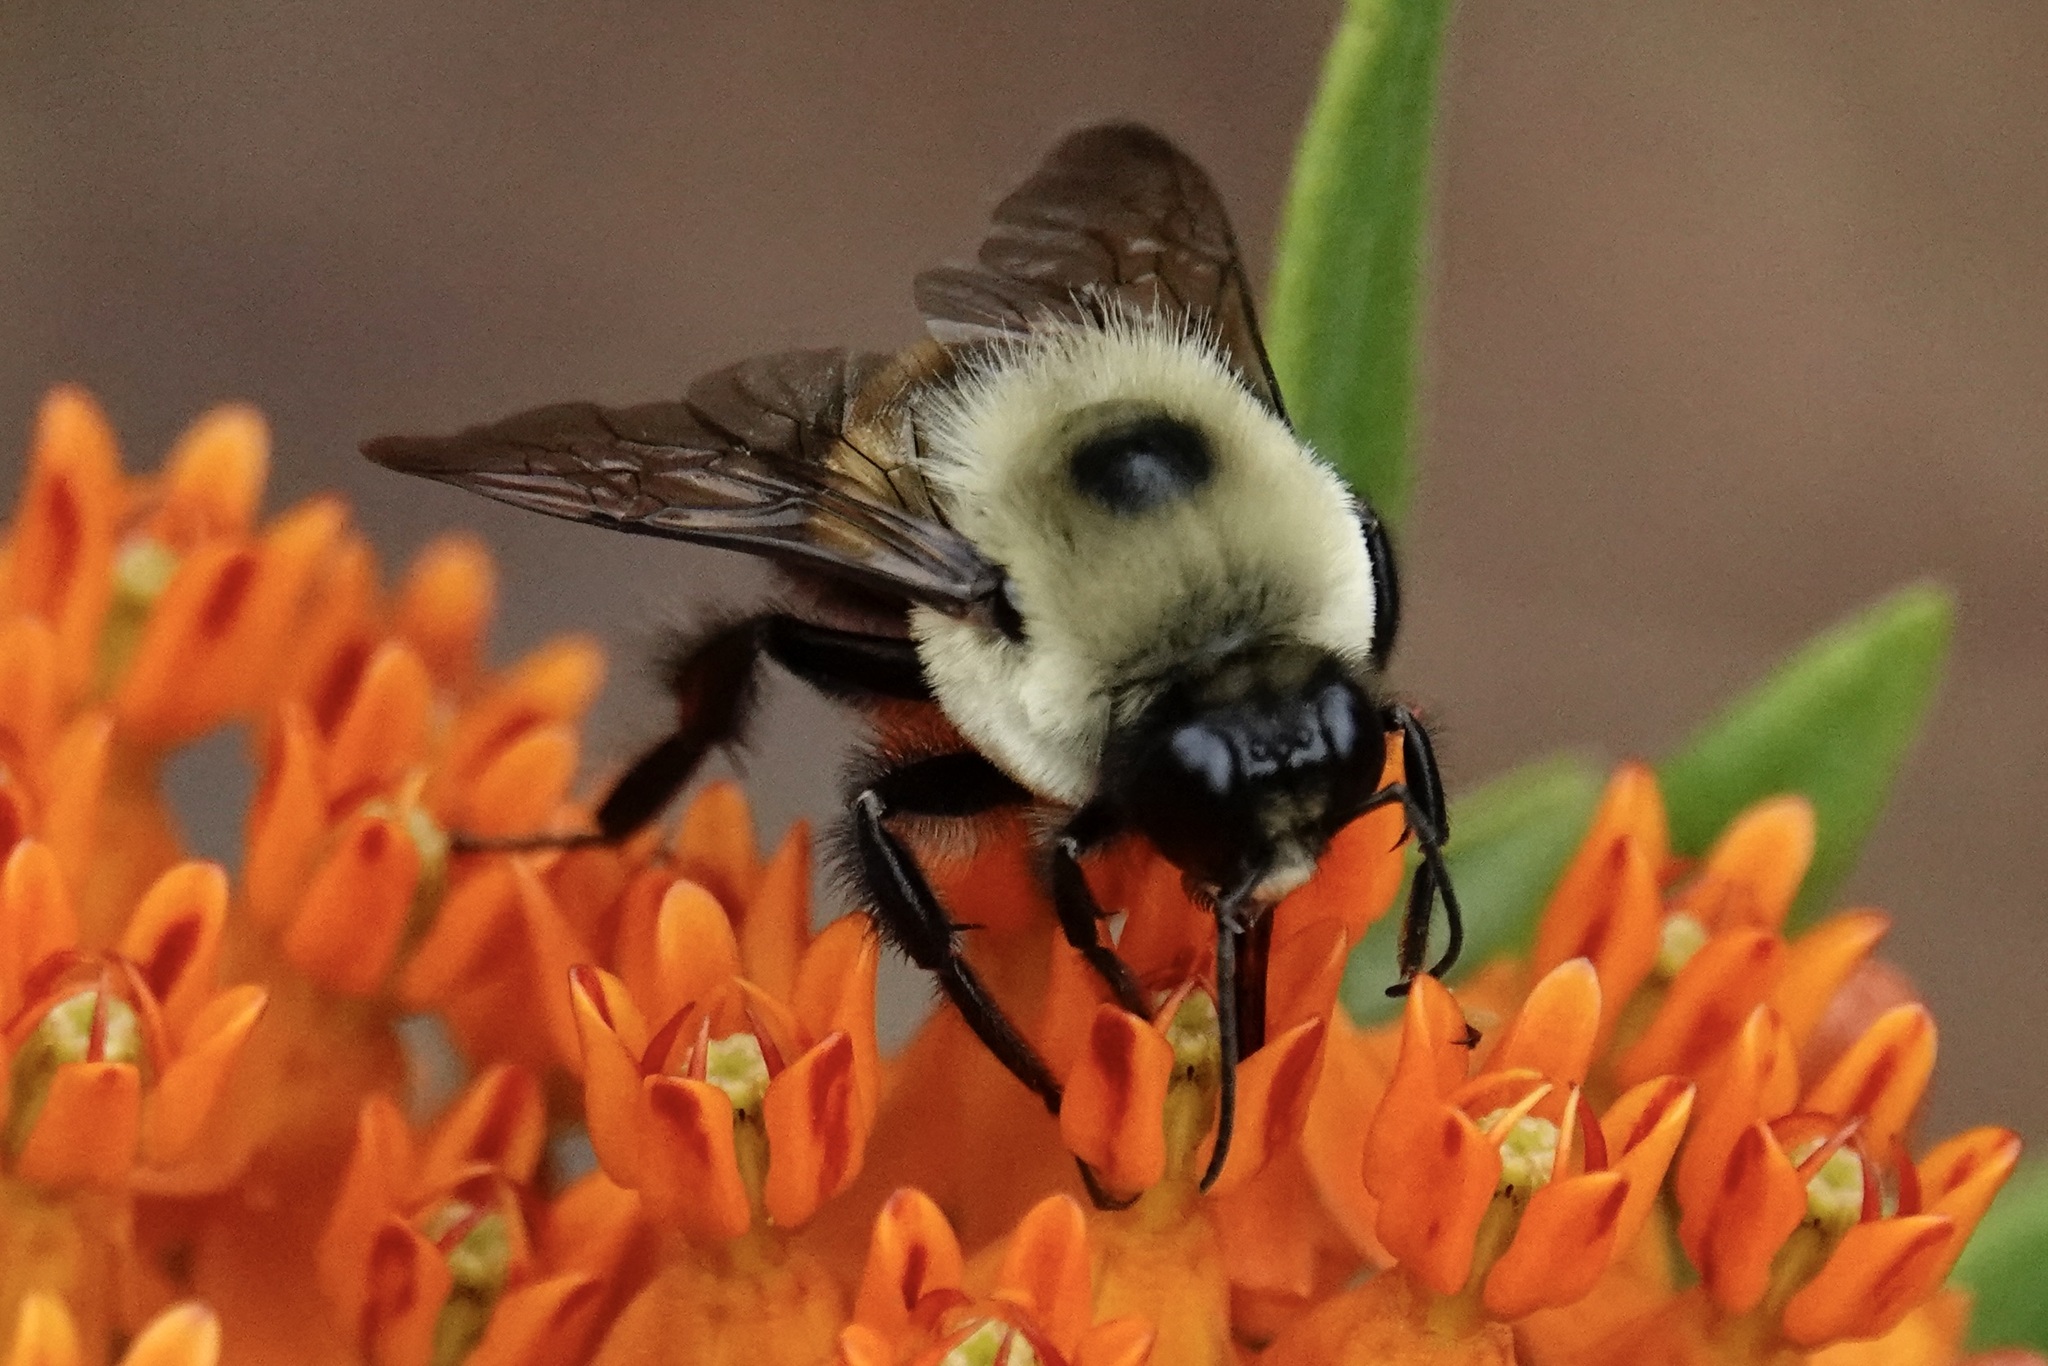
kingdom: Animalia
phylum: Arthropoda
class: Insecta
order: Hymenoptera
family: Apidae
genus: Bombus
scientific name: Bombus griseocollis
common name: Brown-belted bumble bee
